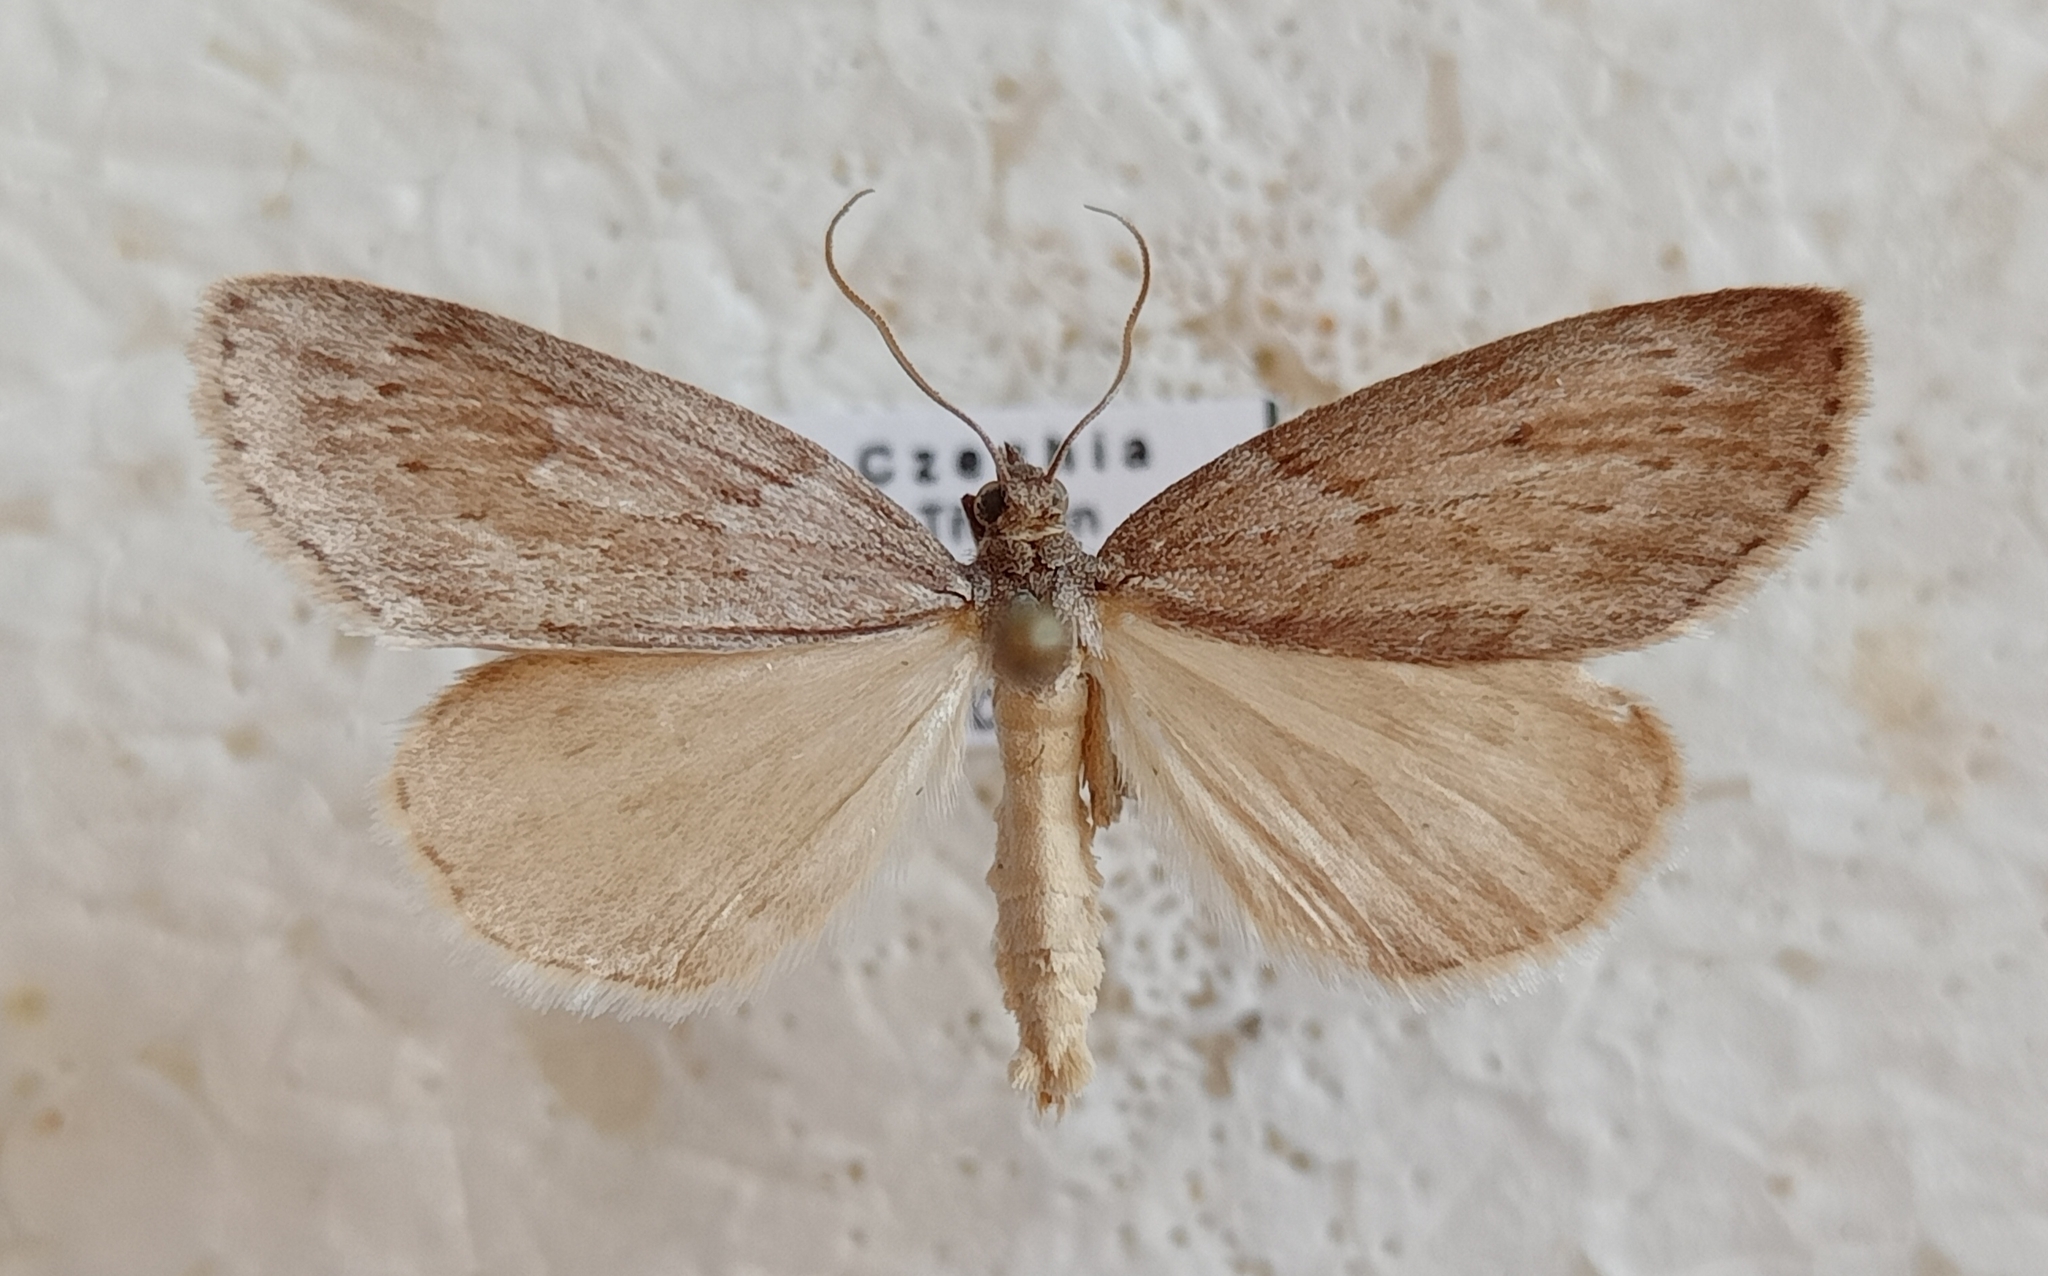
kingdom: Animalia
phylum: Arthropoda
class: Insecta
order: Lepidoptera
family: Geometridae
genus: Pachycnemia
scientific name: Pachycnemia hippocastanaria
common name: Horse chestnut
